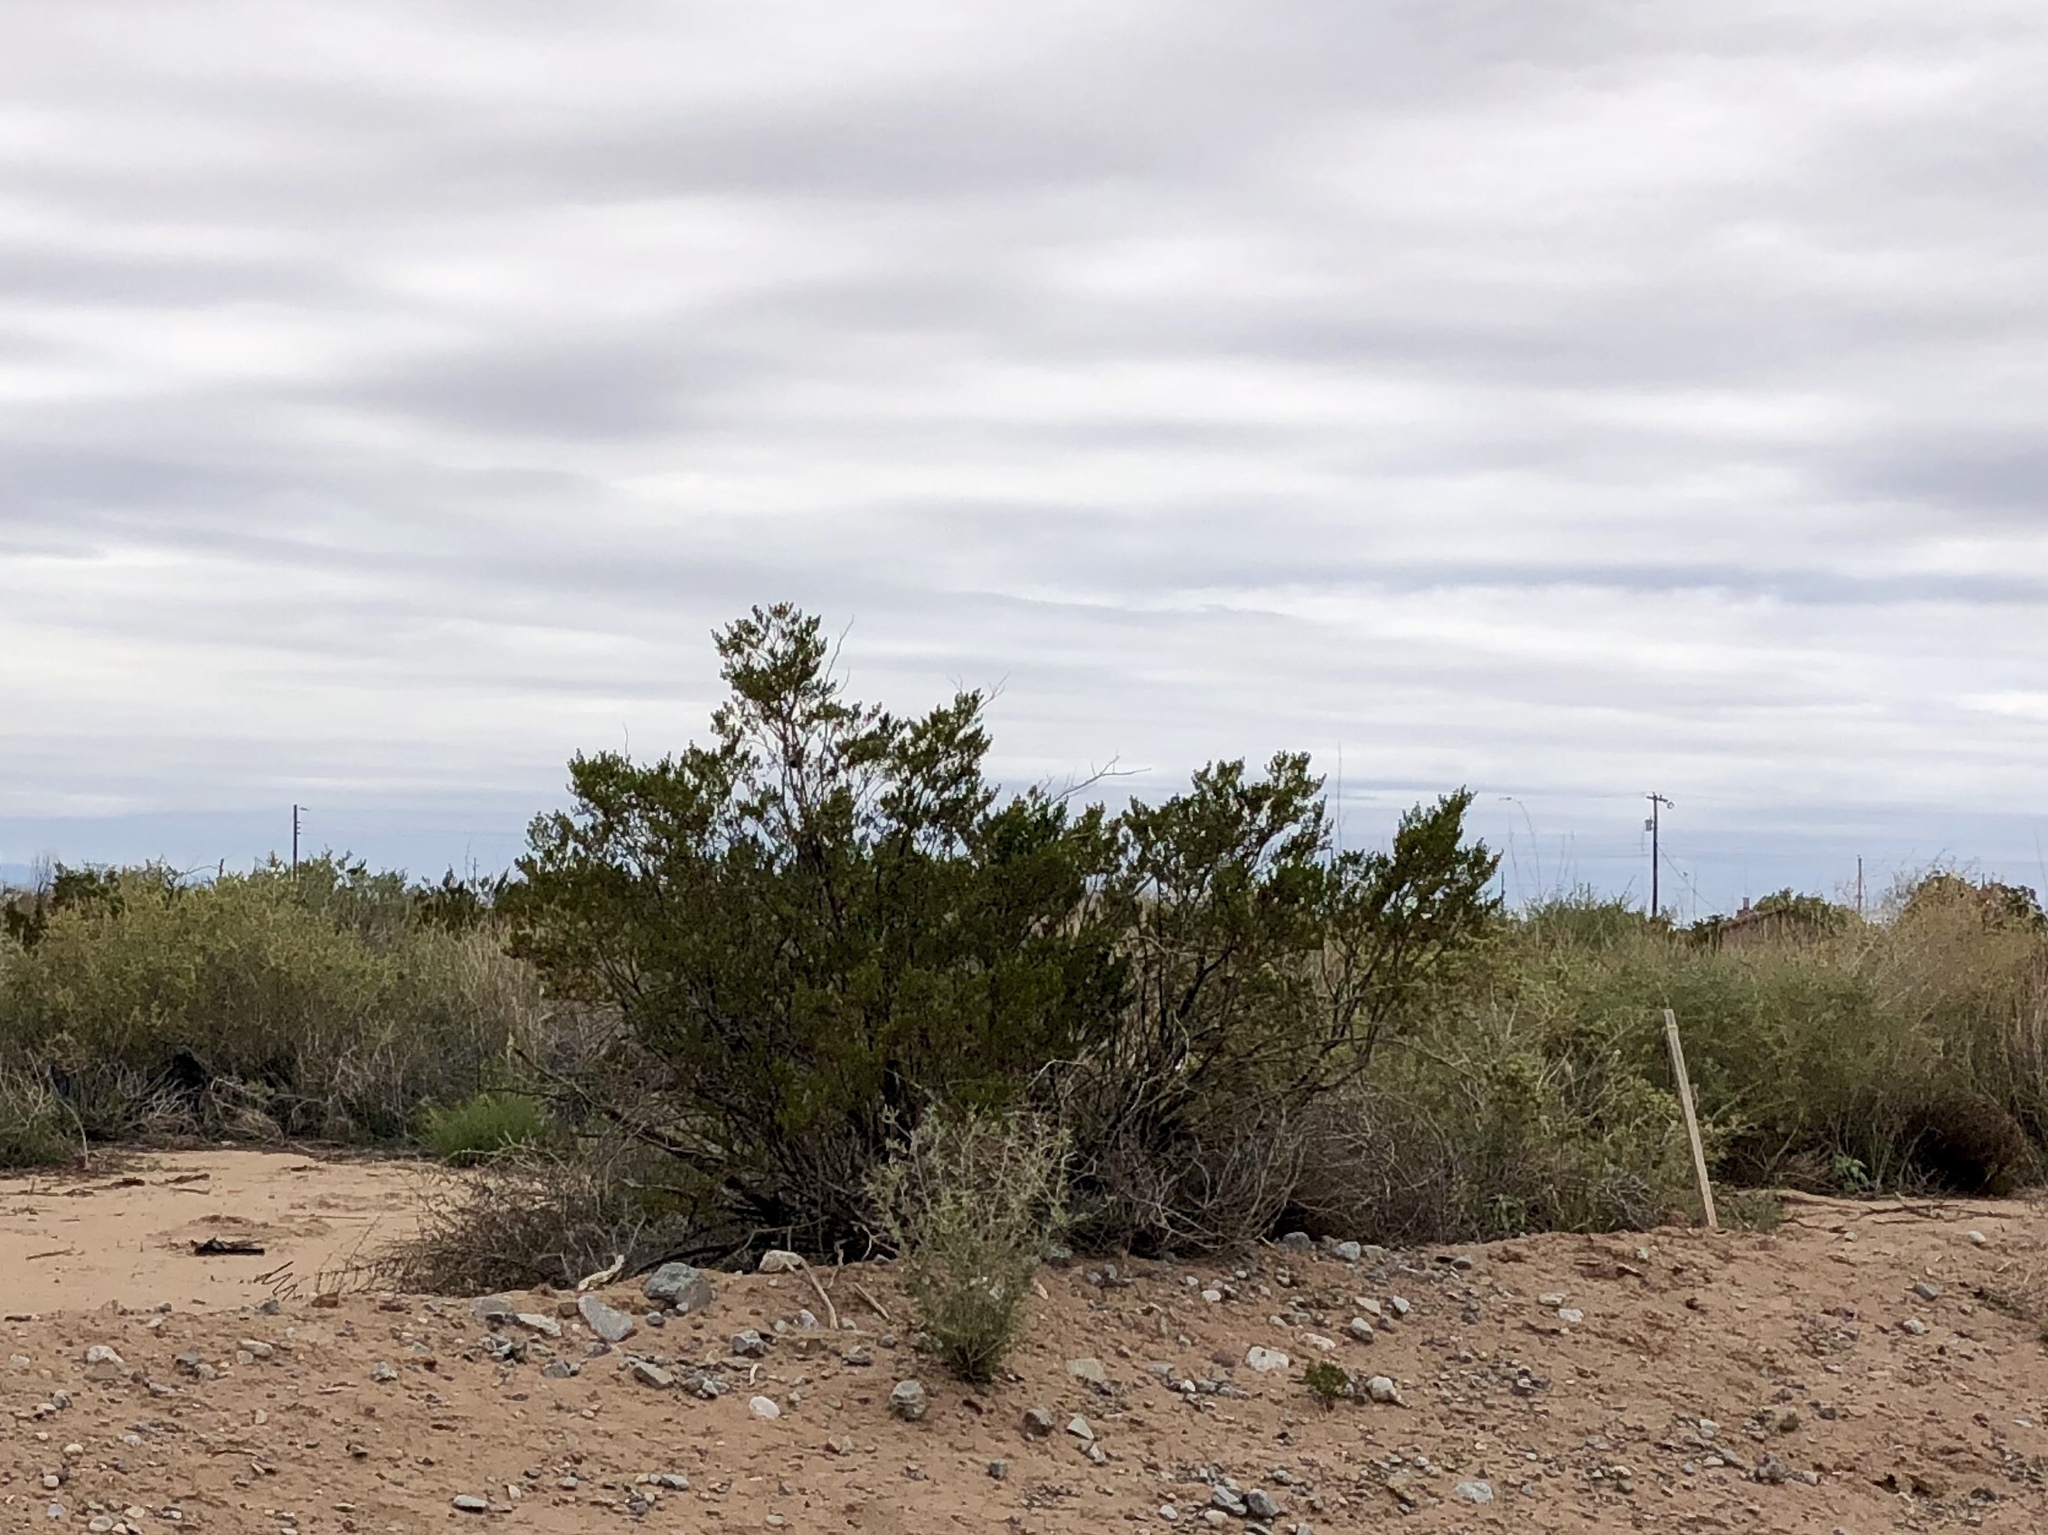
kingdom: Plantae
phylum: Tracheophyta
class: Magnoliopsida
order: Zygophyllales
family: Zygophyllaceae
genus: Larrea
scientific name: Larrea tridentata
